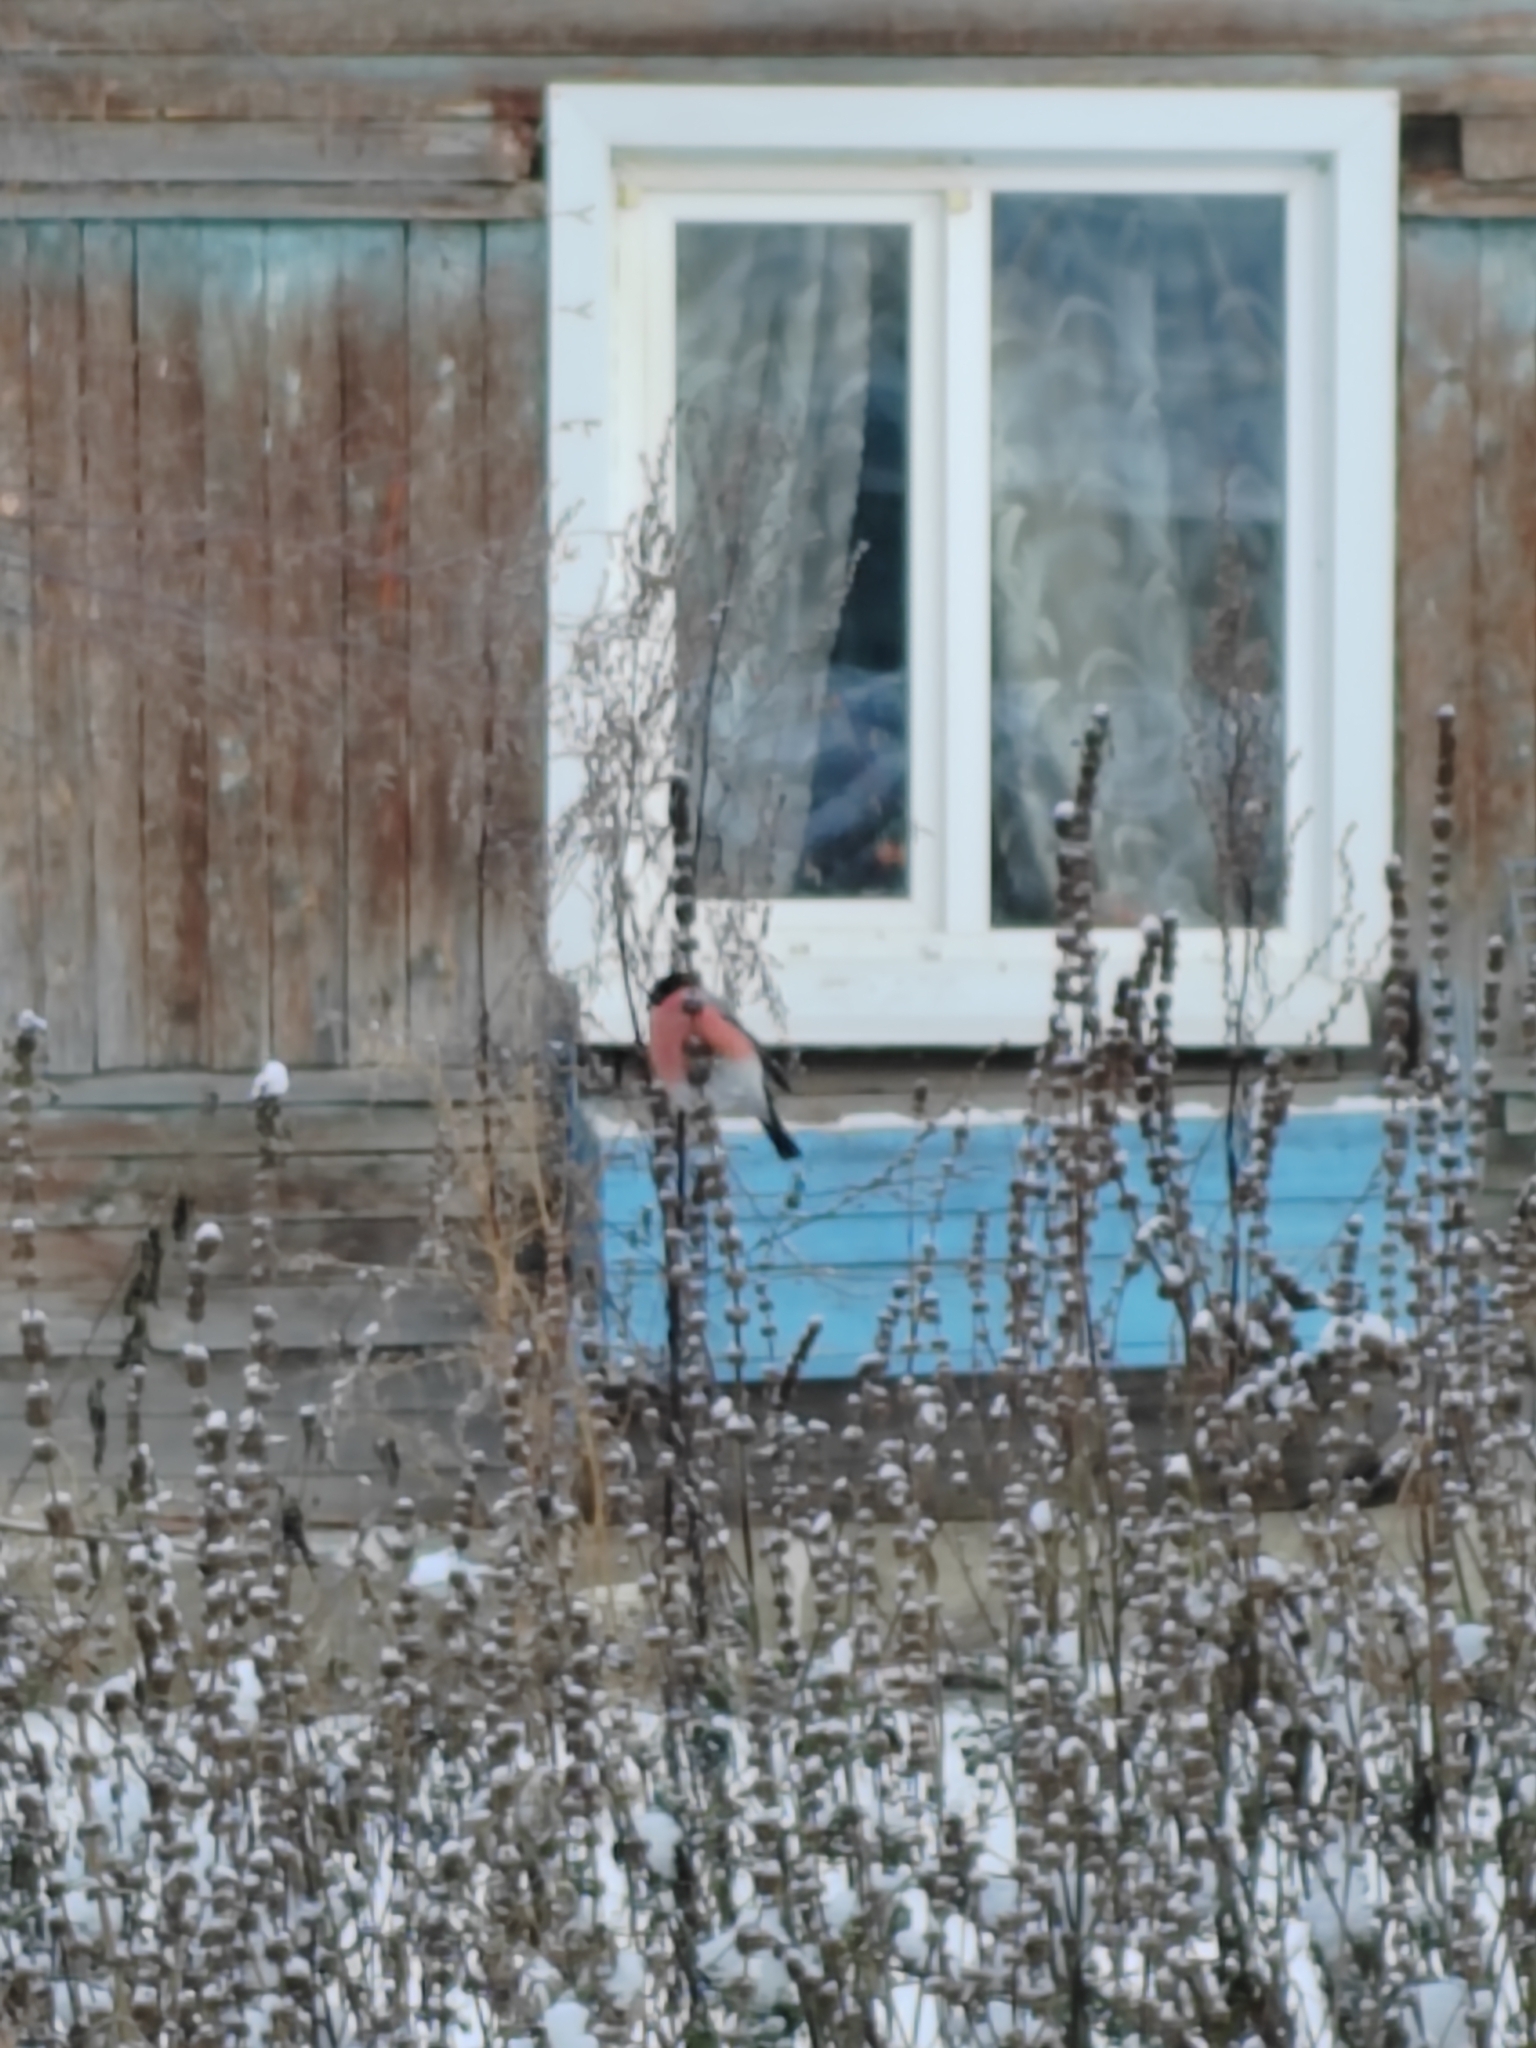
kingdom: Animalia
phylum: Chordata
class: Aves
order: Passeriformes
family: Fringillidae
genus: Pyrrhula
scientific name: Pyrrhula pyrrhula
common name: Eurasian bullfinch
